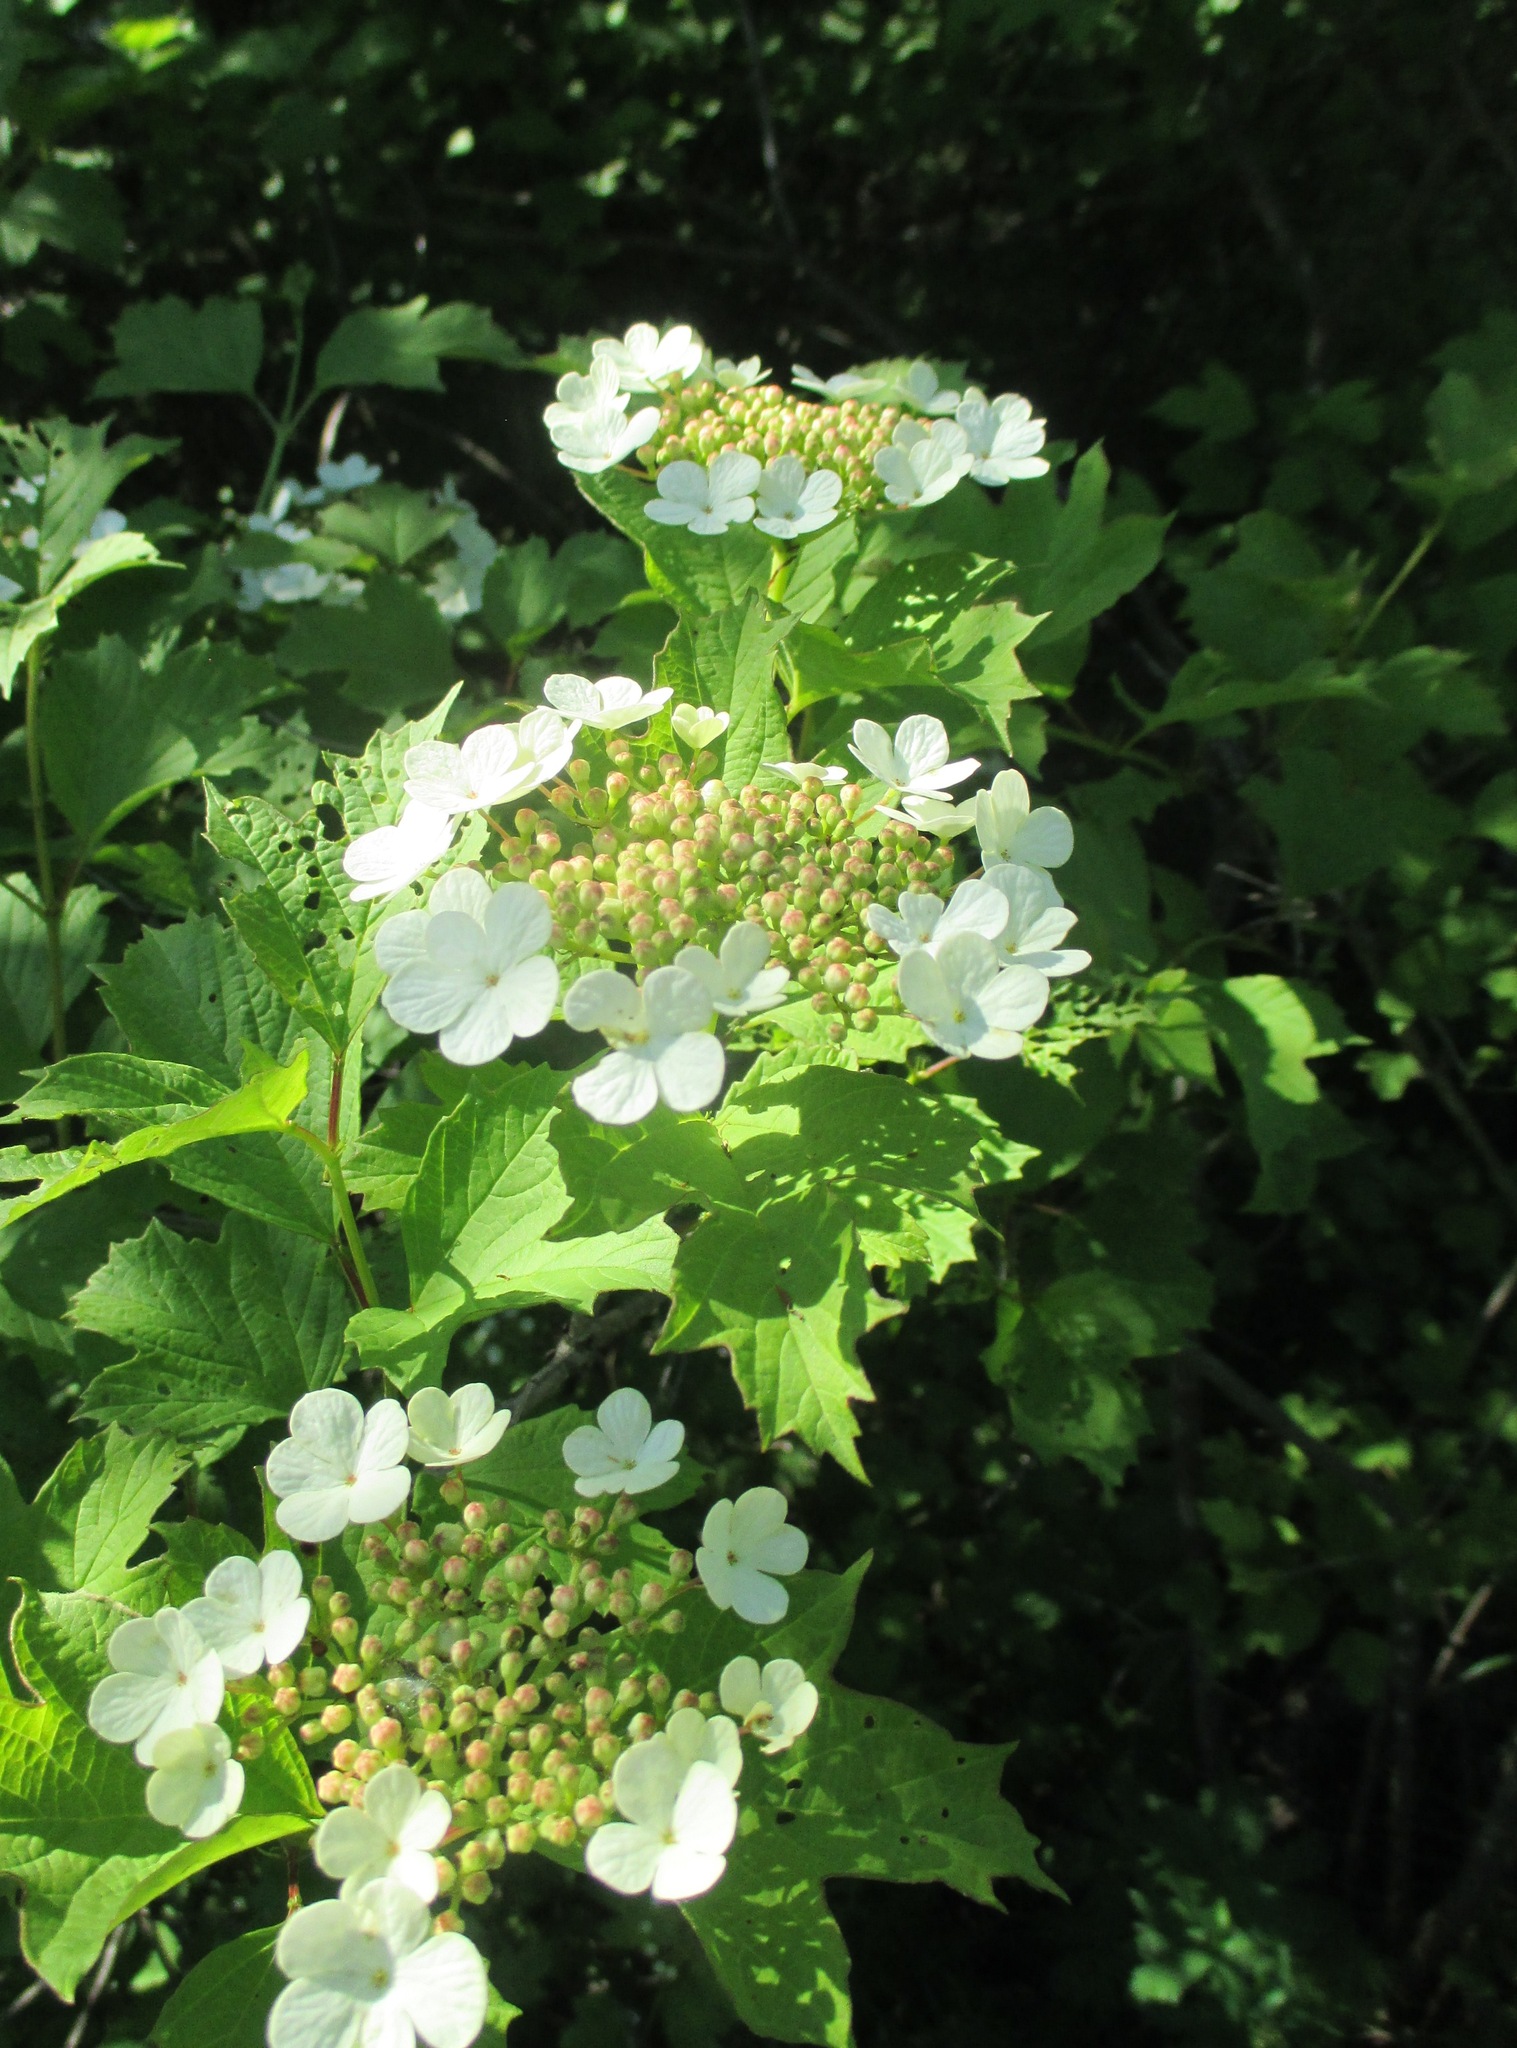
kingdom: Plantae
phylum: Tracheophyta
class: Magnoliopsida
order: Dipsacales
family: Viburnaceae
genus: Viburnum
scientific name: Viburnum opulus
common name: Guelder-rose
